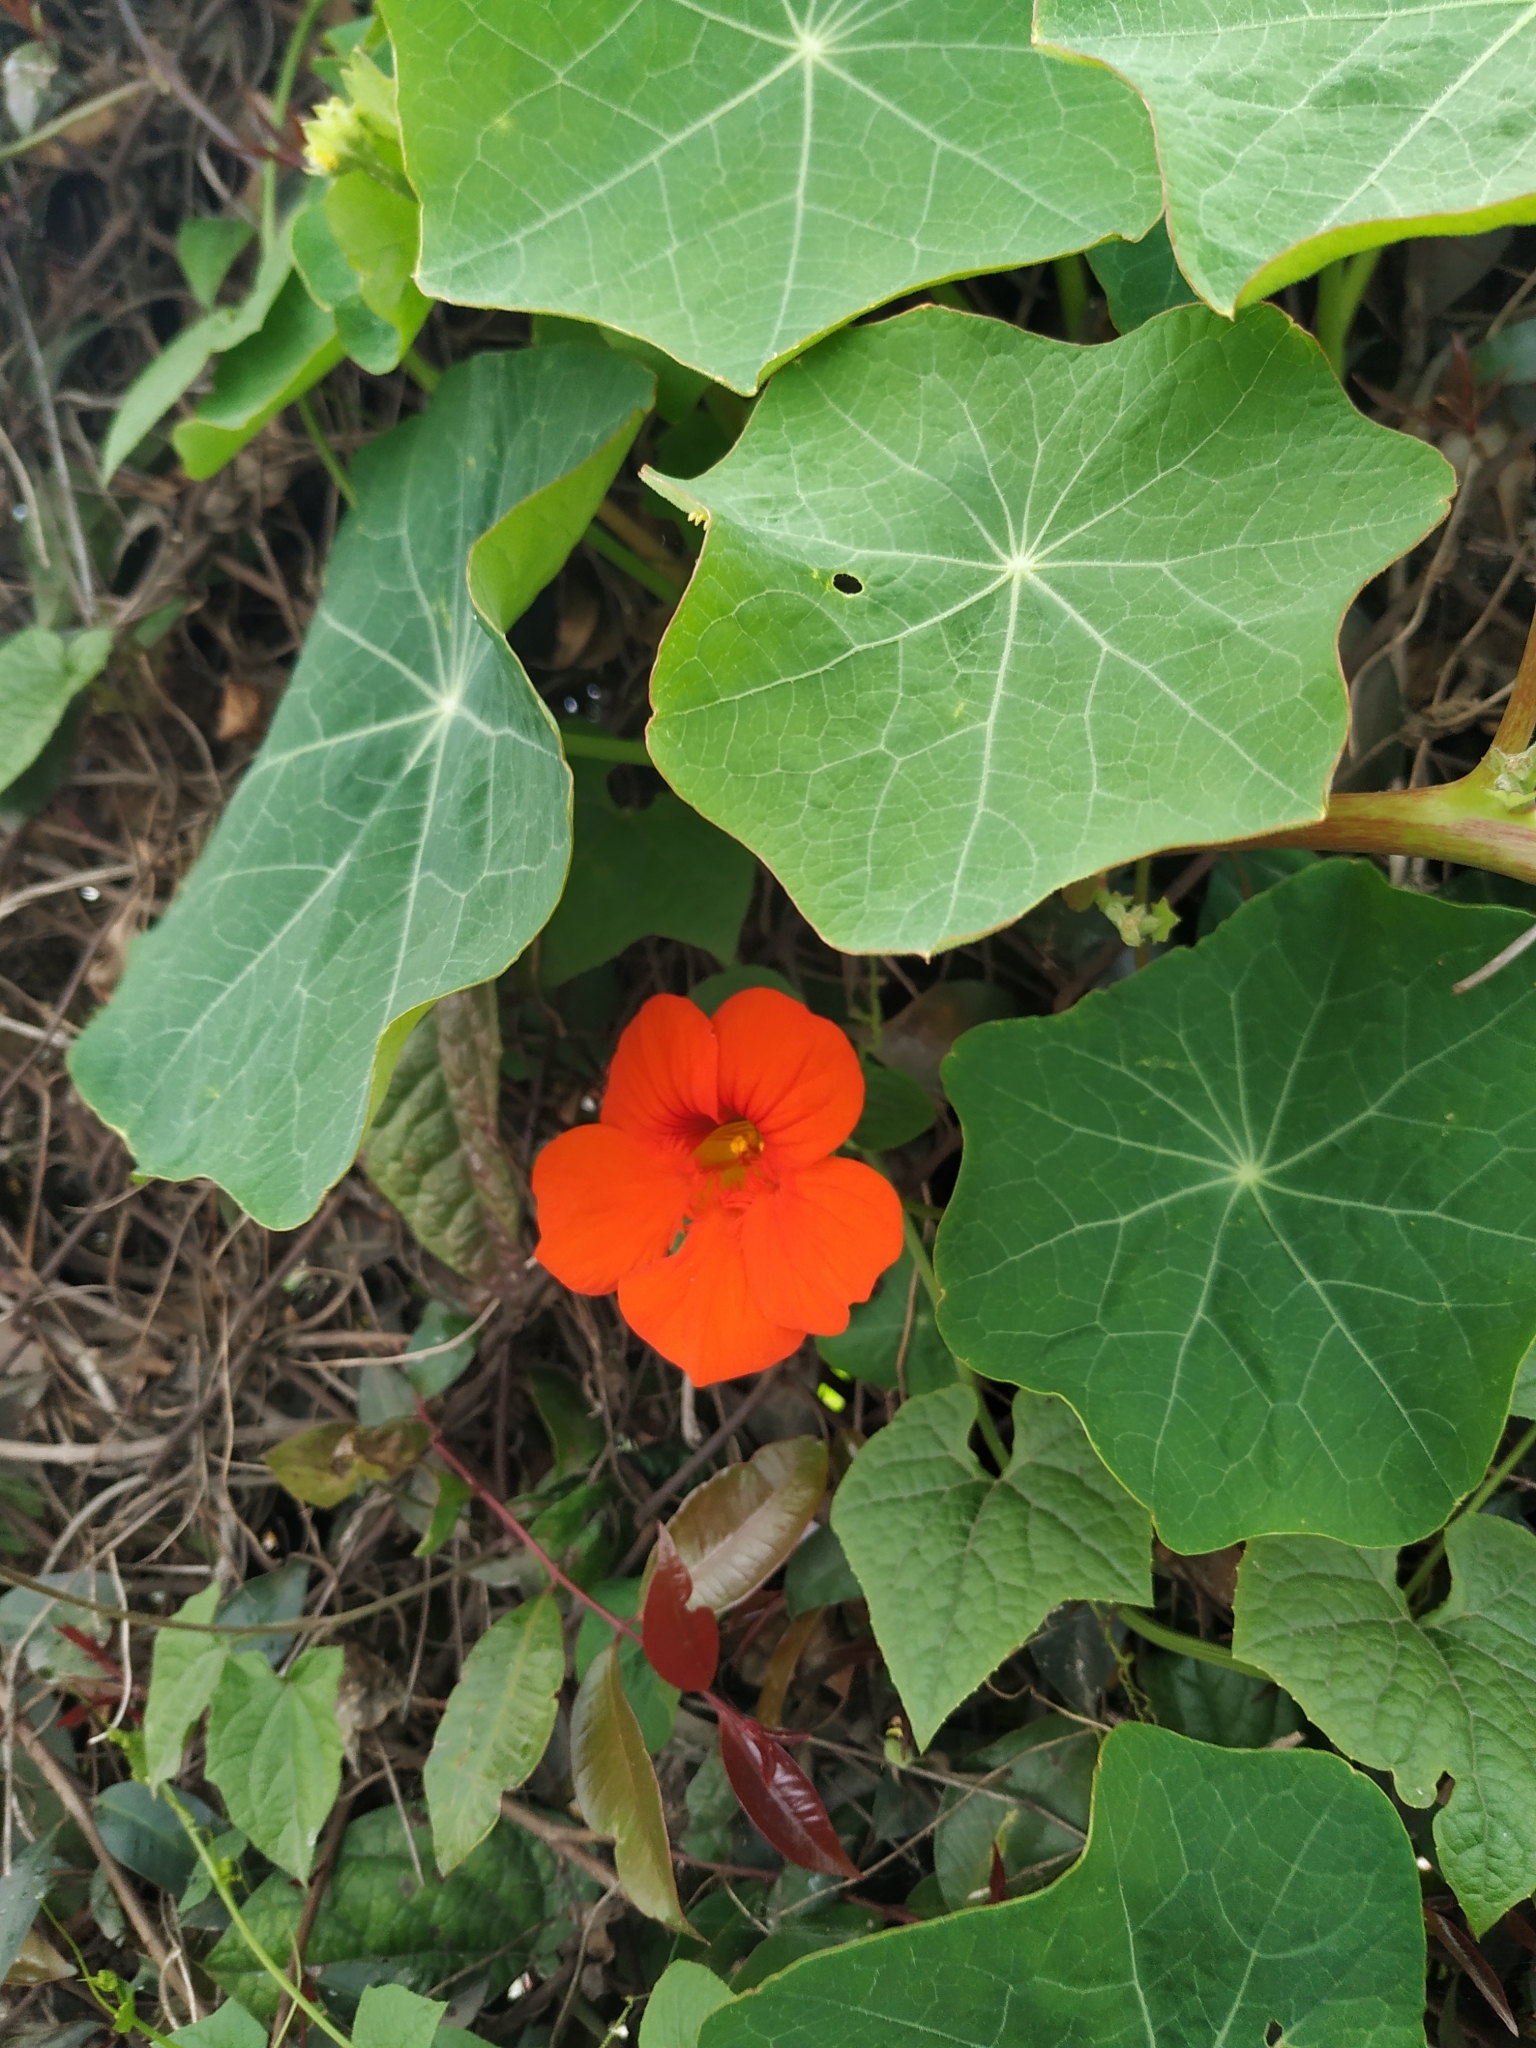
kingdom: Plantae
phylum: Tracheophyta
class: Magnoliopsida
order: Brassicales
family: Tropaeolaceae
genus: Tropaeolum
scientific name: Tropaeolum majus
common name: Nasturtium
